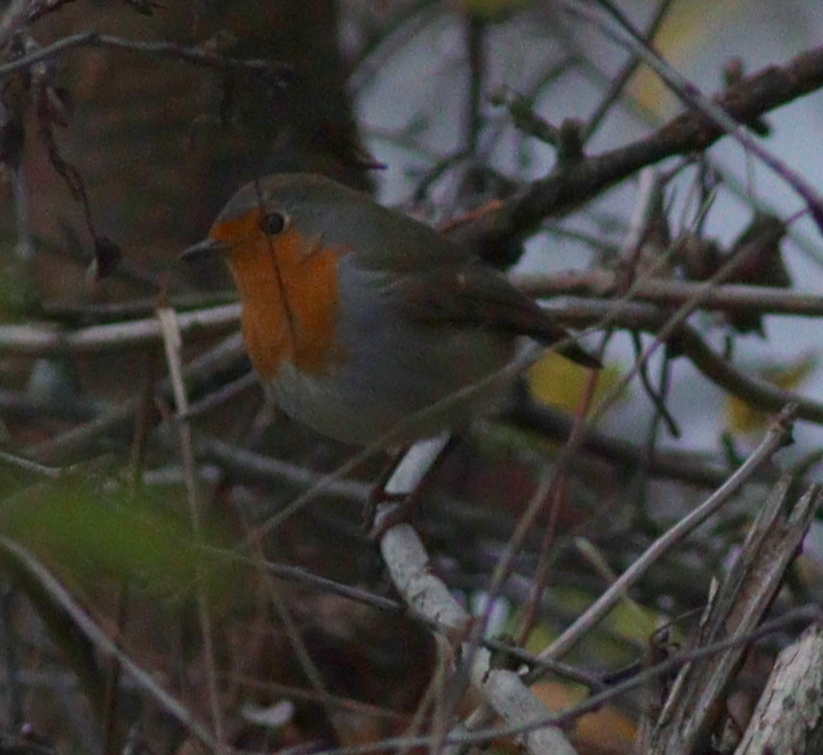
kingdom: Animalia
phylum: Chordata
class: Aves
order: Passeriformes
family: Muscicapidae
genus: Erithacus
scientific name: Erithacus rubecula
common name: European robin
